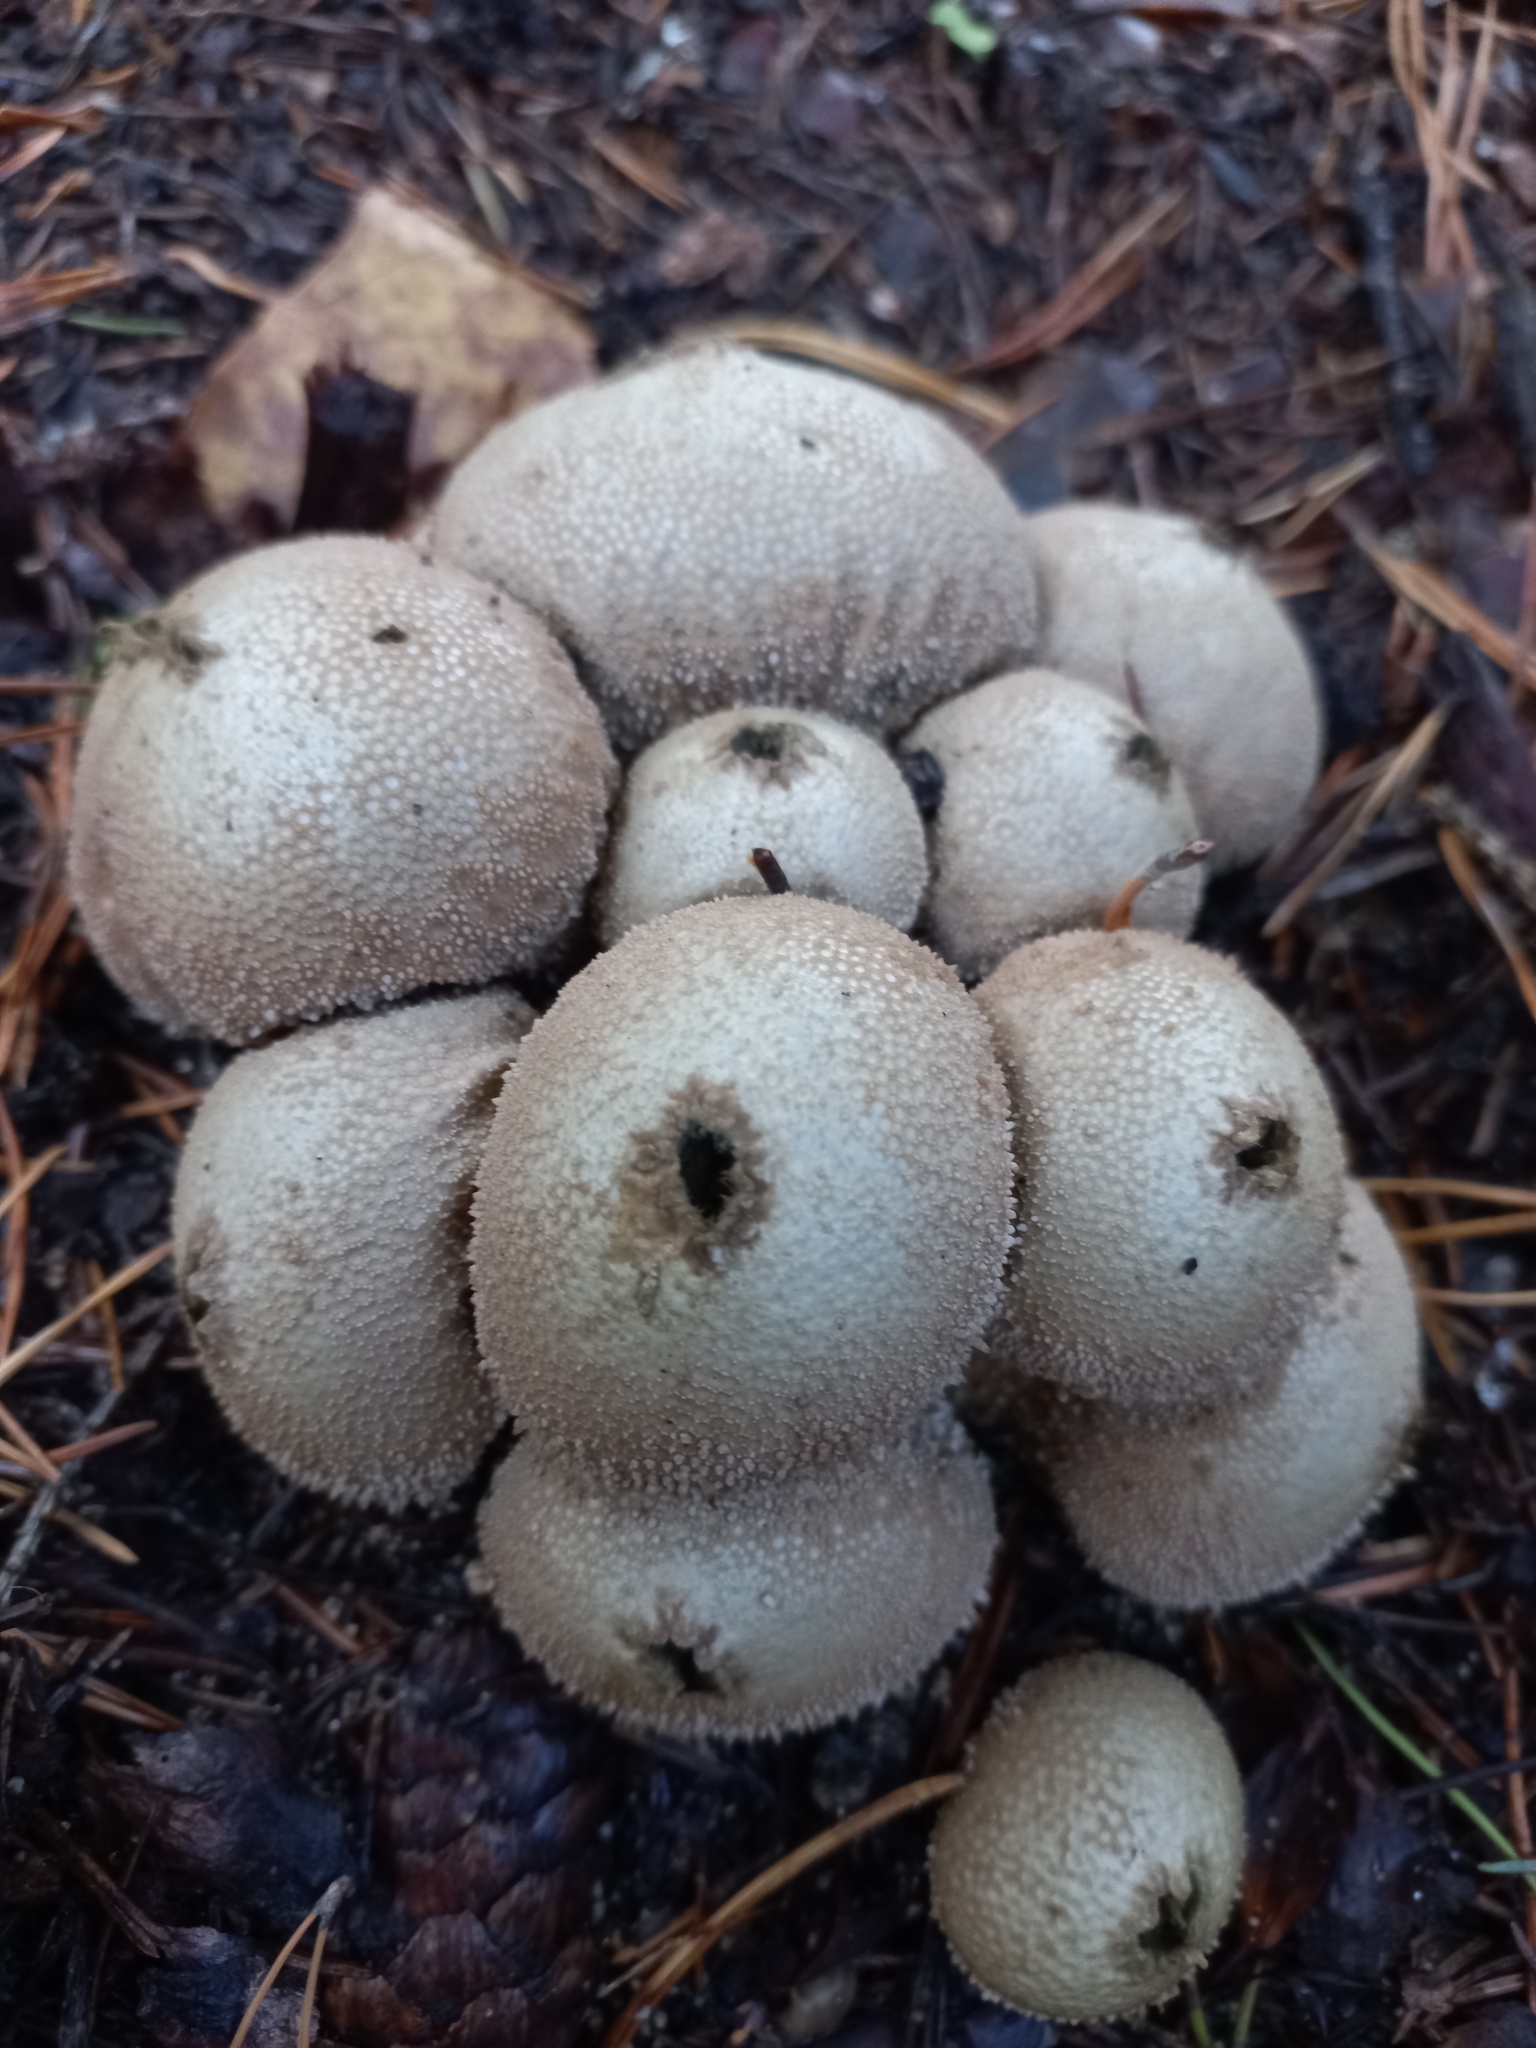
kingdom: Fungi
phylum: Basidiomycota
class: Agaricomycetes
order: Agaricales
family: Lycoperdaceae
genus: Lycoperdon
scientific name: Lycoperdon perlatum
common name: Common puffball
